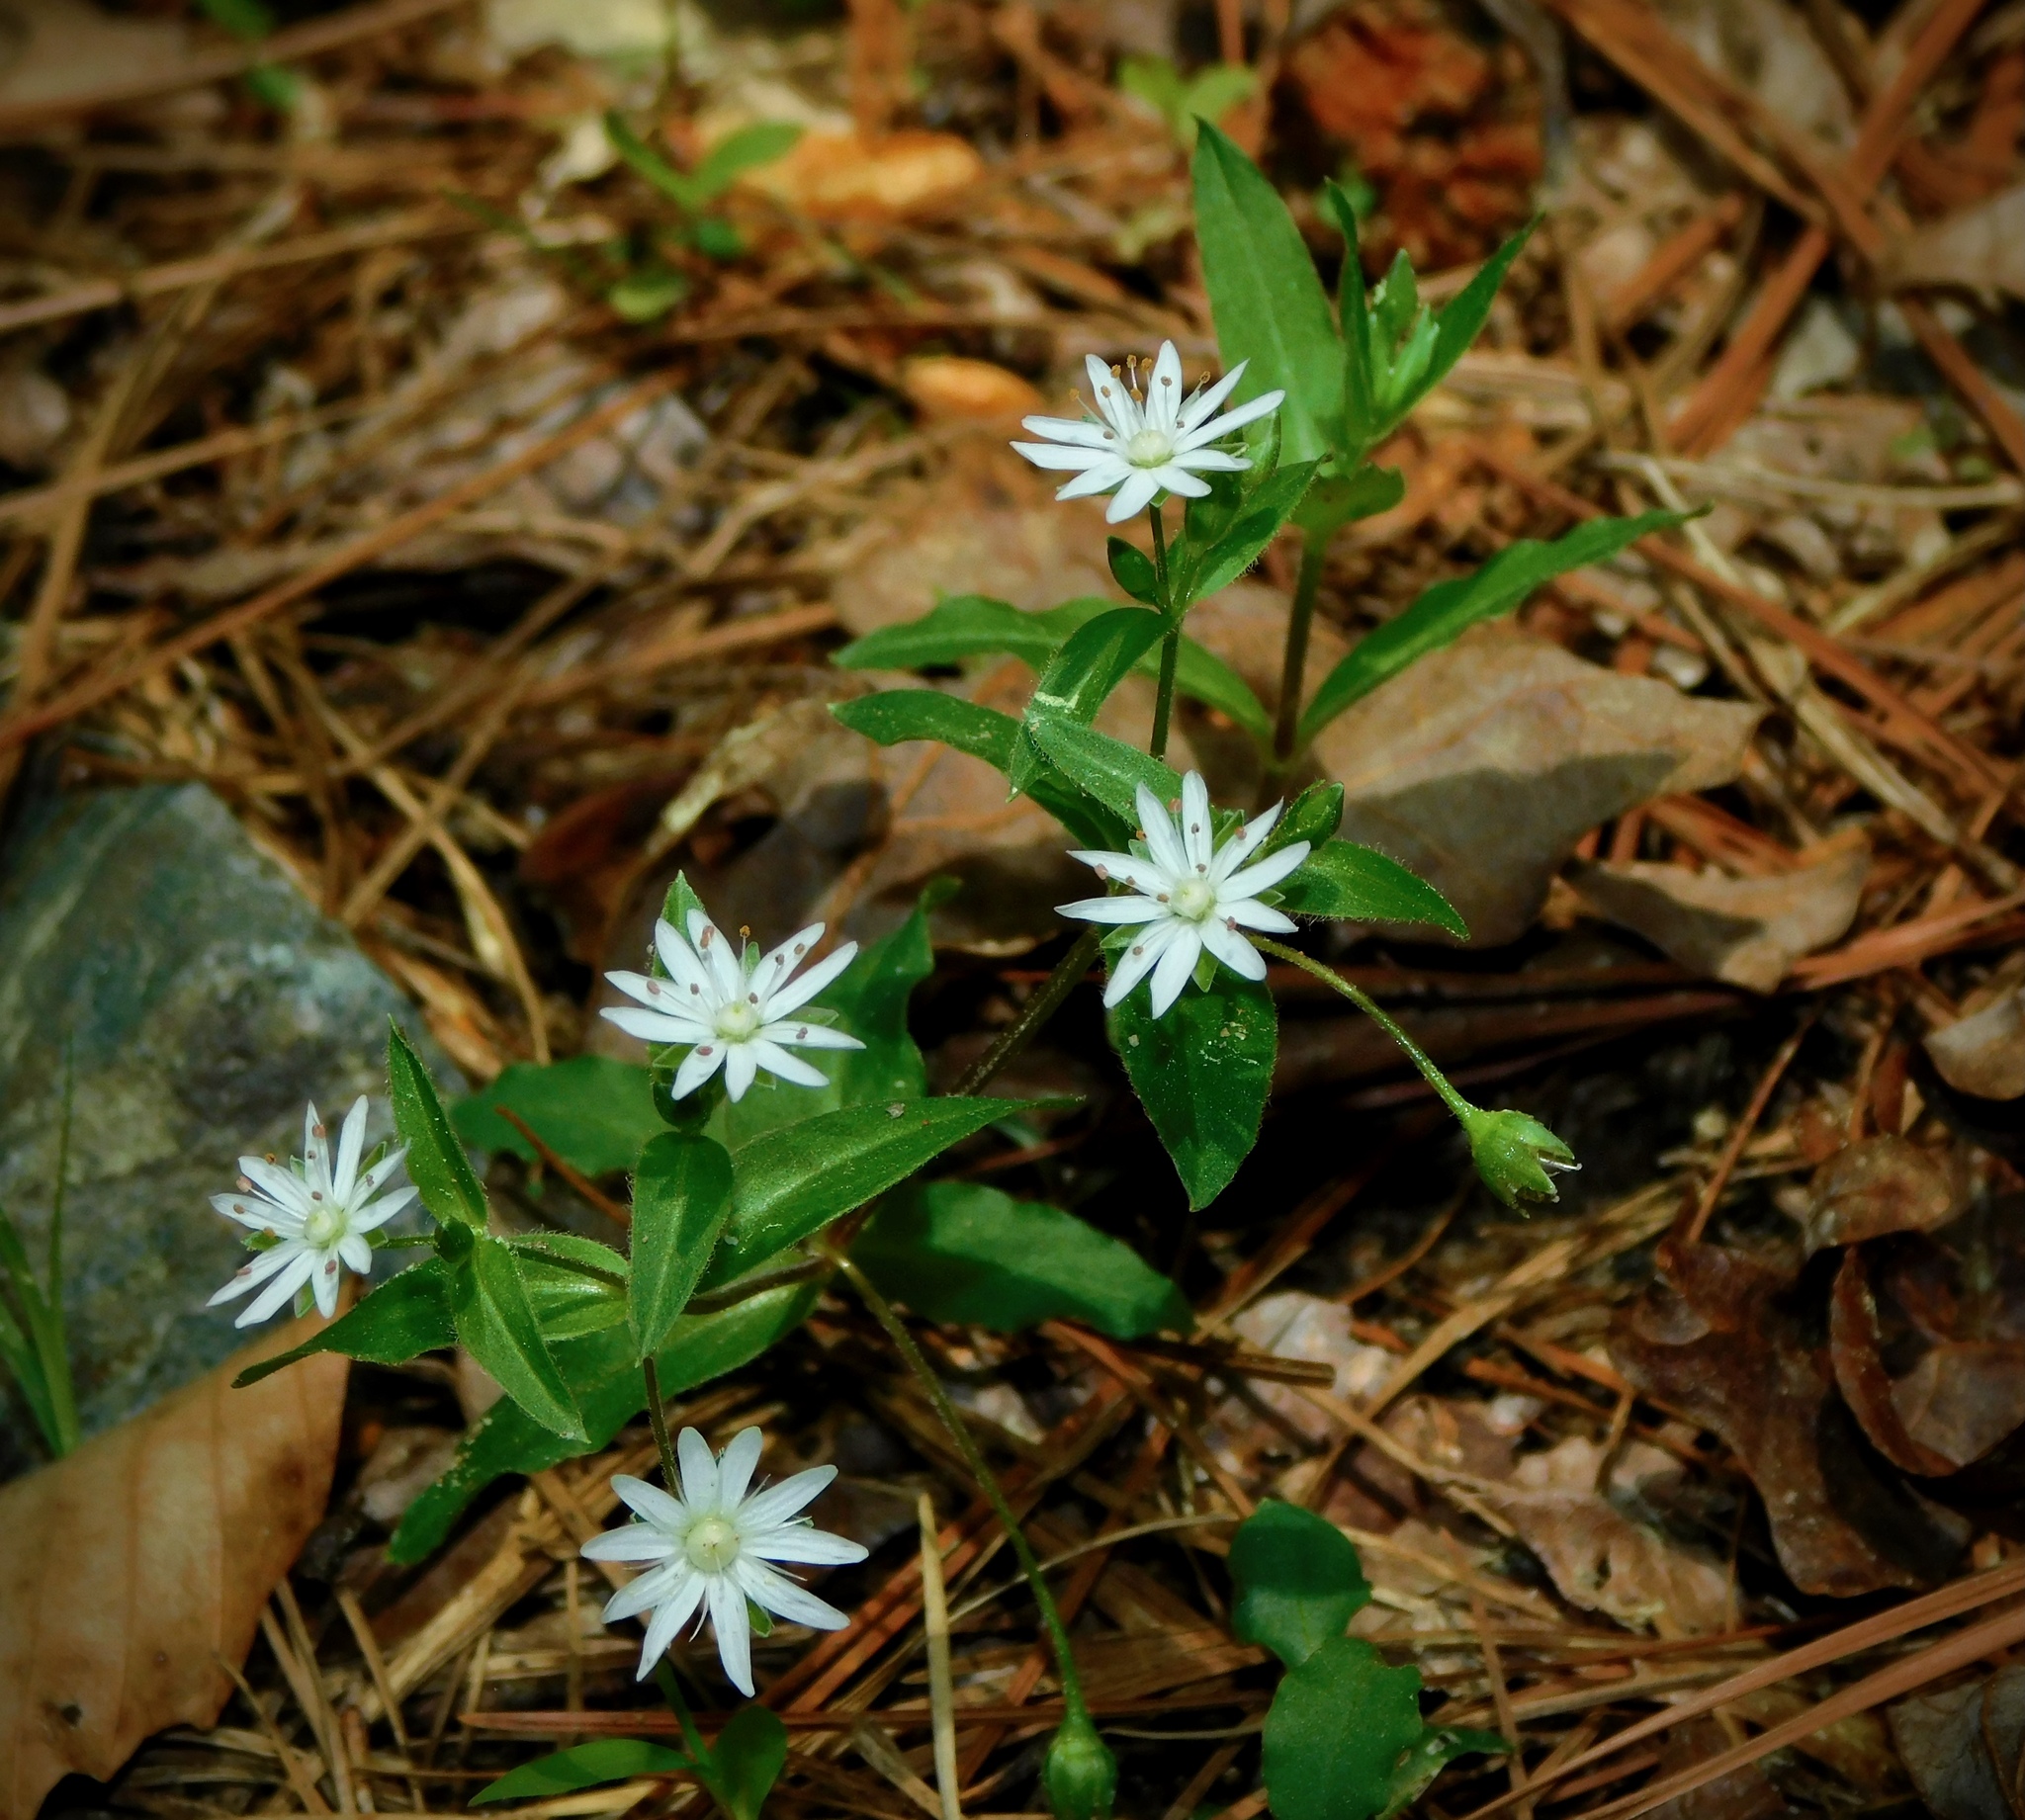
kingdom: Plantae
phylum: Tracheophyta
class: Magnoliopsida
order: Caryophyllales
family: Caryophyllaceae
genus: Stellaria
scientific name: Stellaria pubera
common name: Star chickweed
